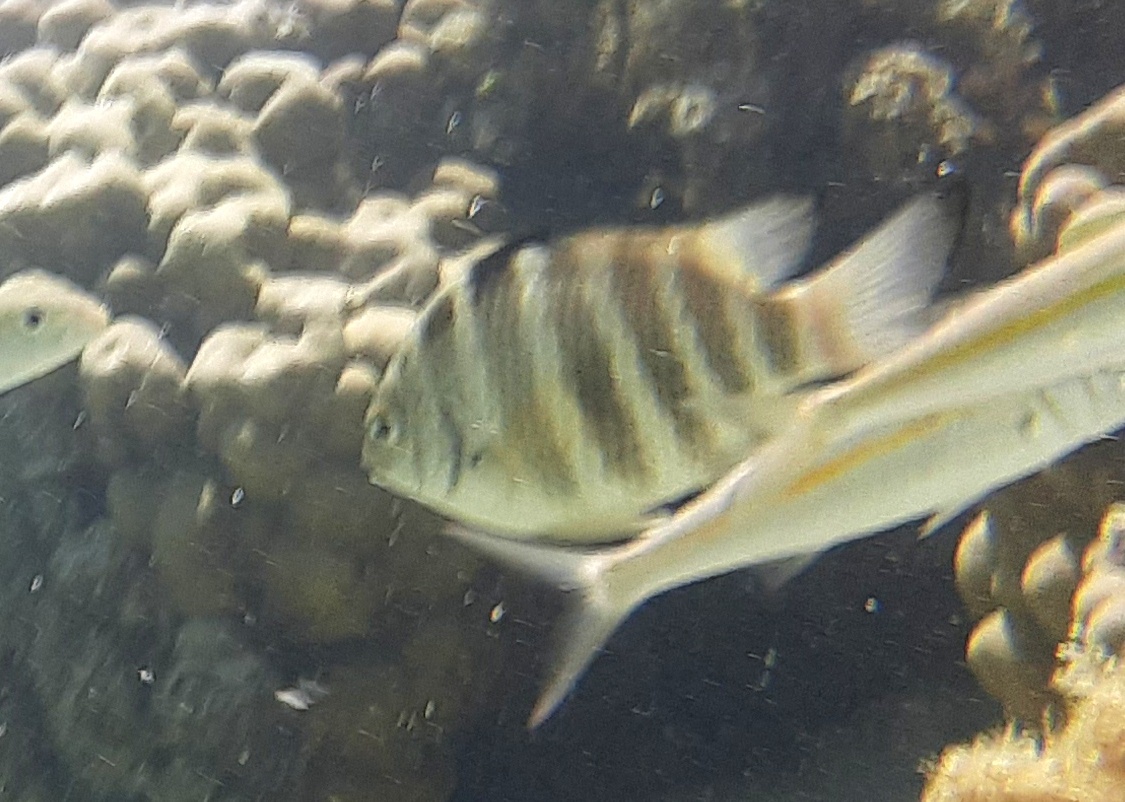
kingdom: Animalia
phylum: Chordata
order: Perciformes
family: Pomacentridae
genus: Abudefduf
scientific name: Abudefduf septemfasciatus
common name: Banded sergeant
